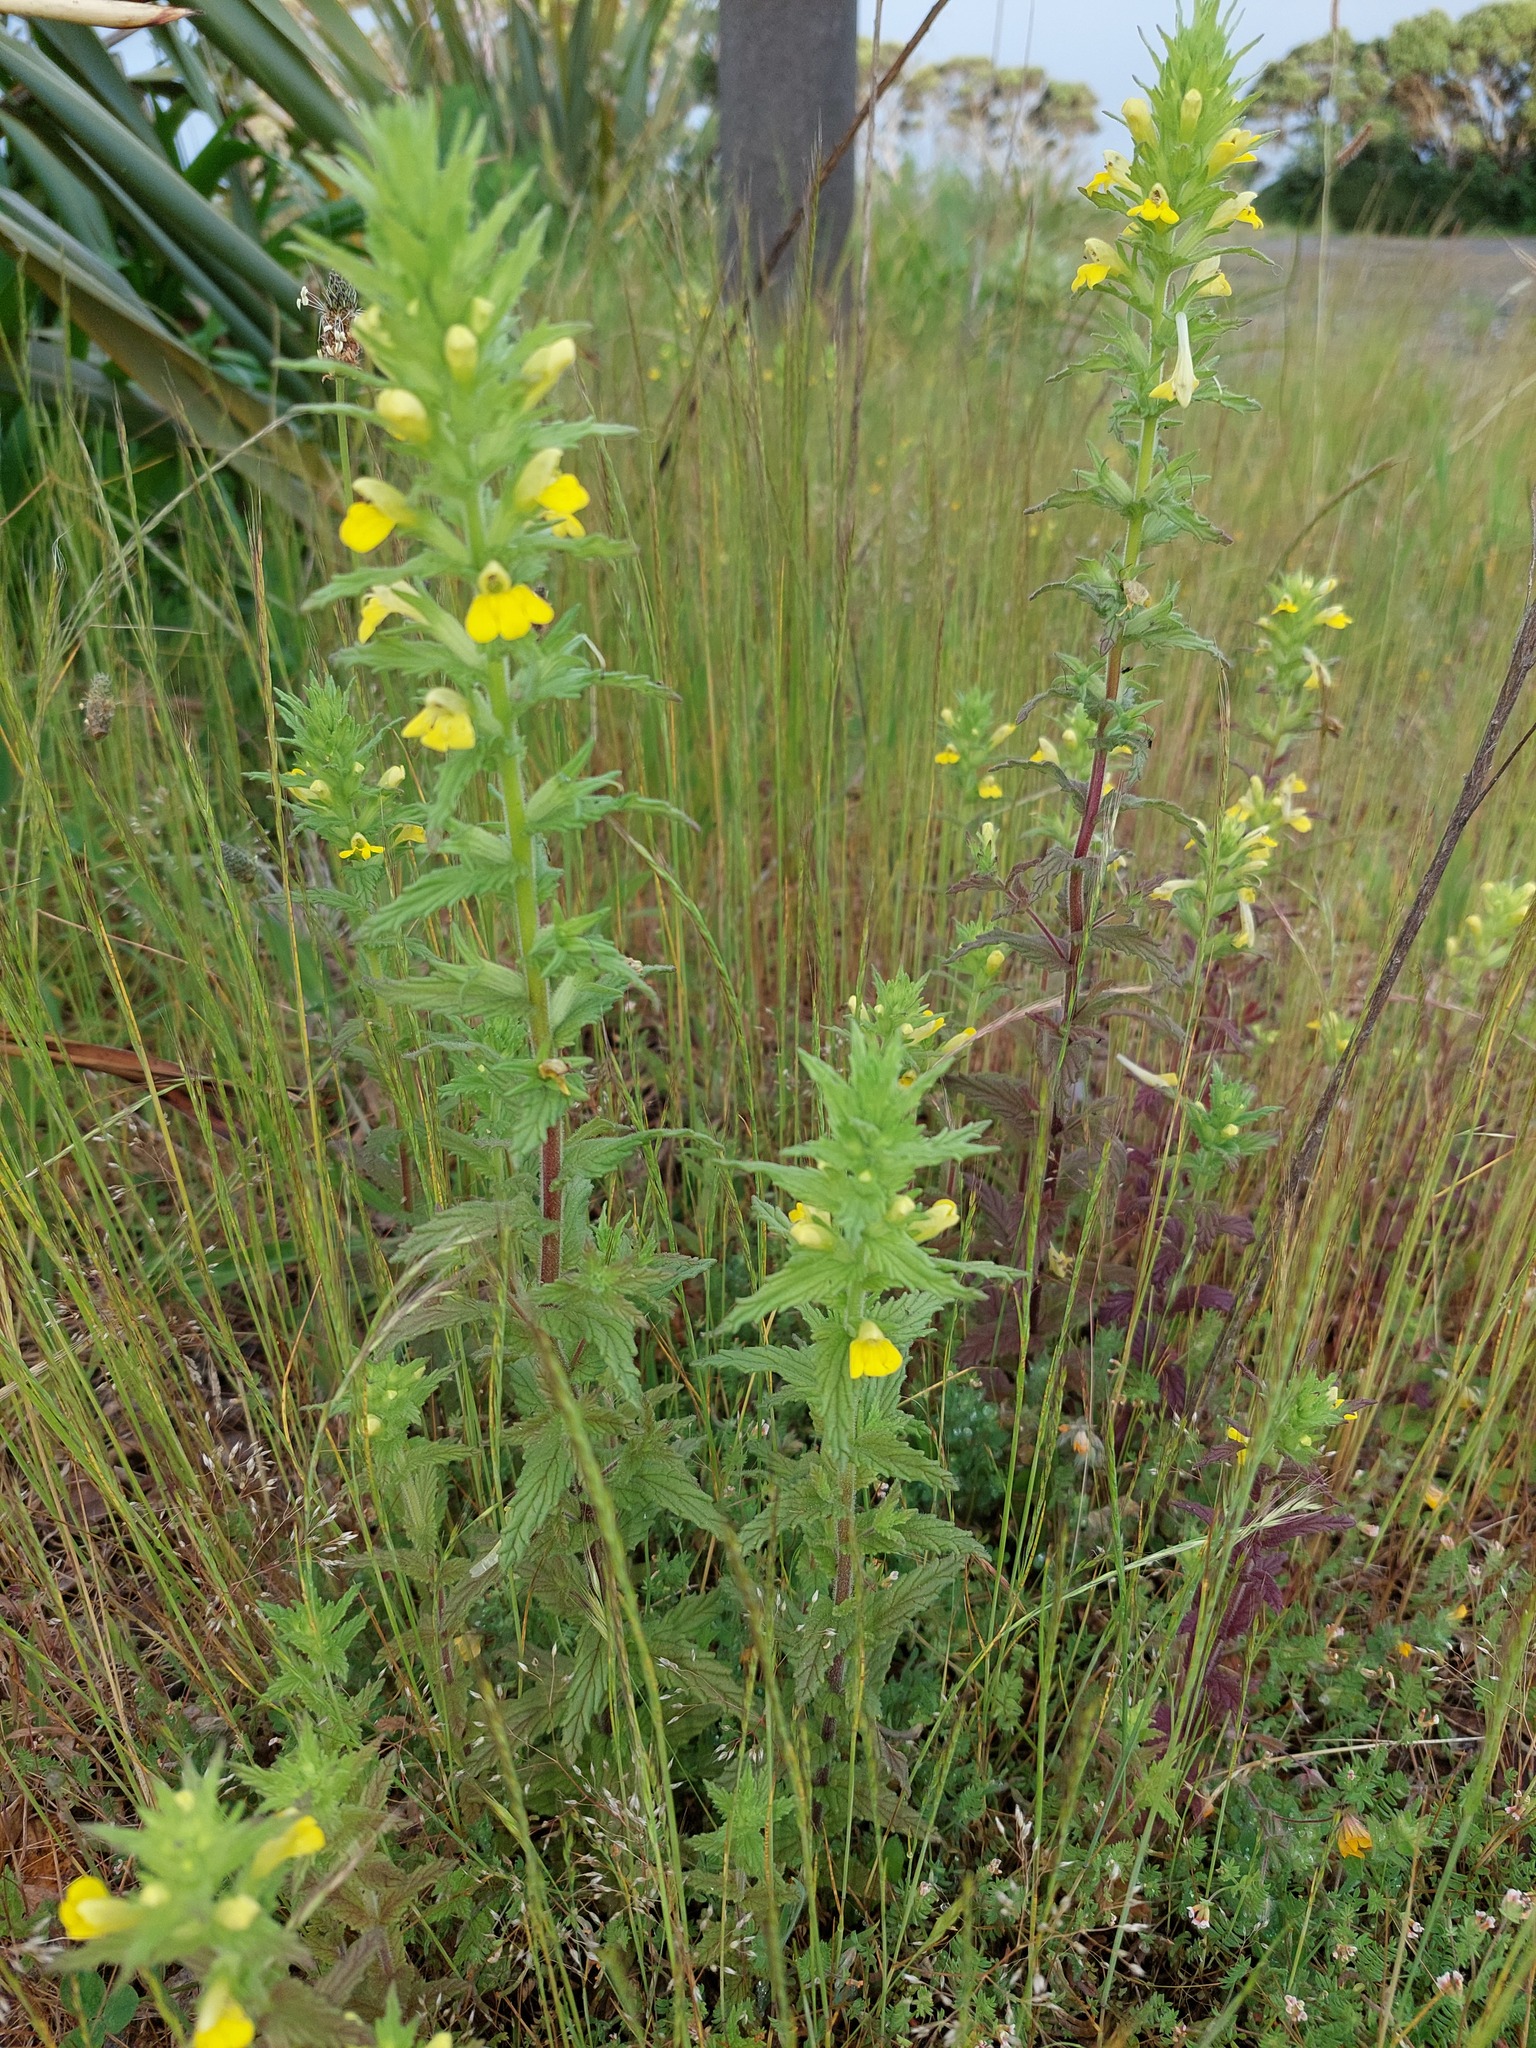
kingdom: Plantae
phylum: Tracheophyta
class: Magnoliopsida
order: Lamiales
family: Orobanchaceae
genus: Bellardia
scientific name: Bellardia viscosa
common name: Sticky parentucellia
